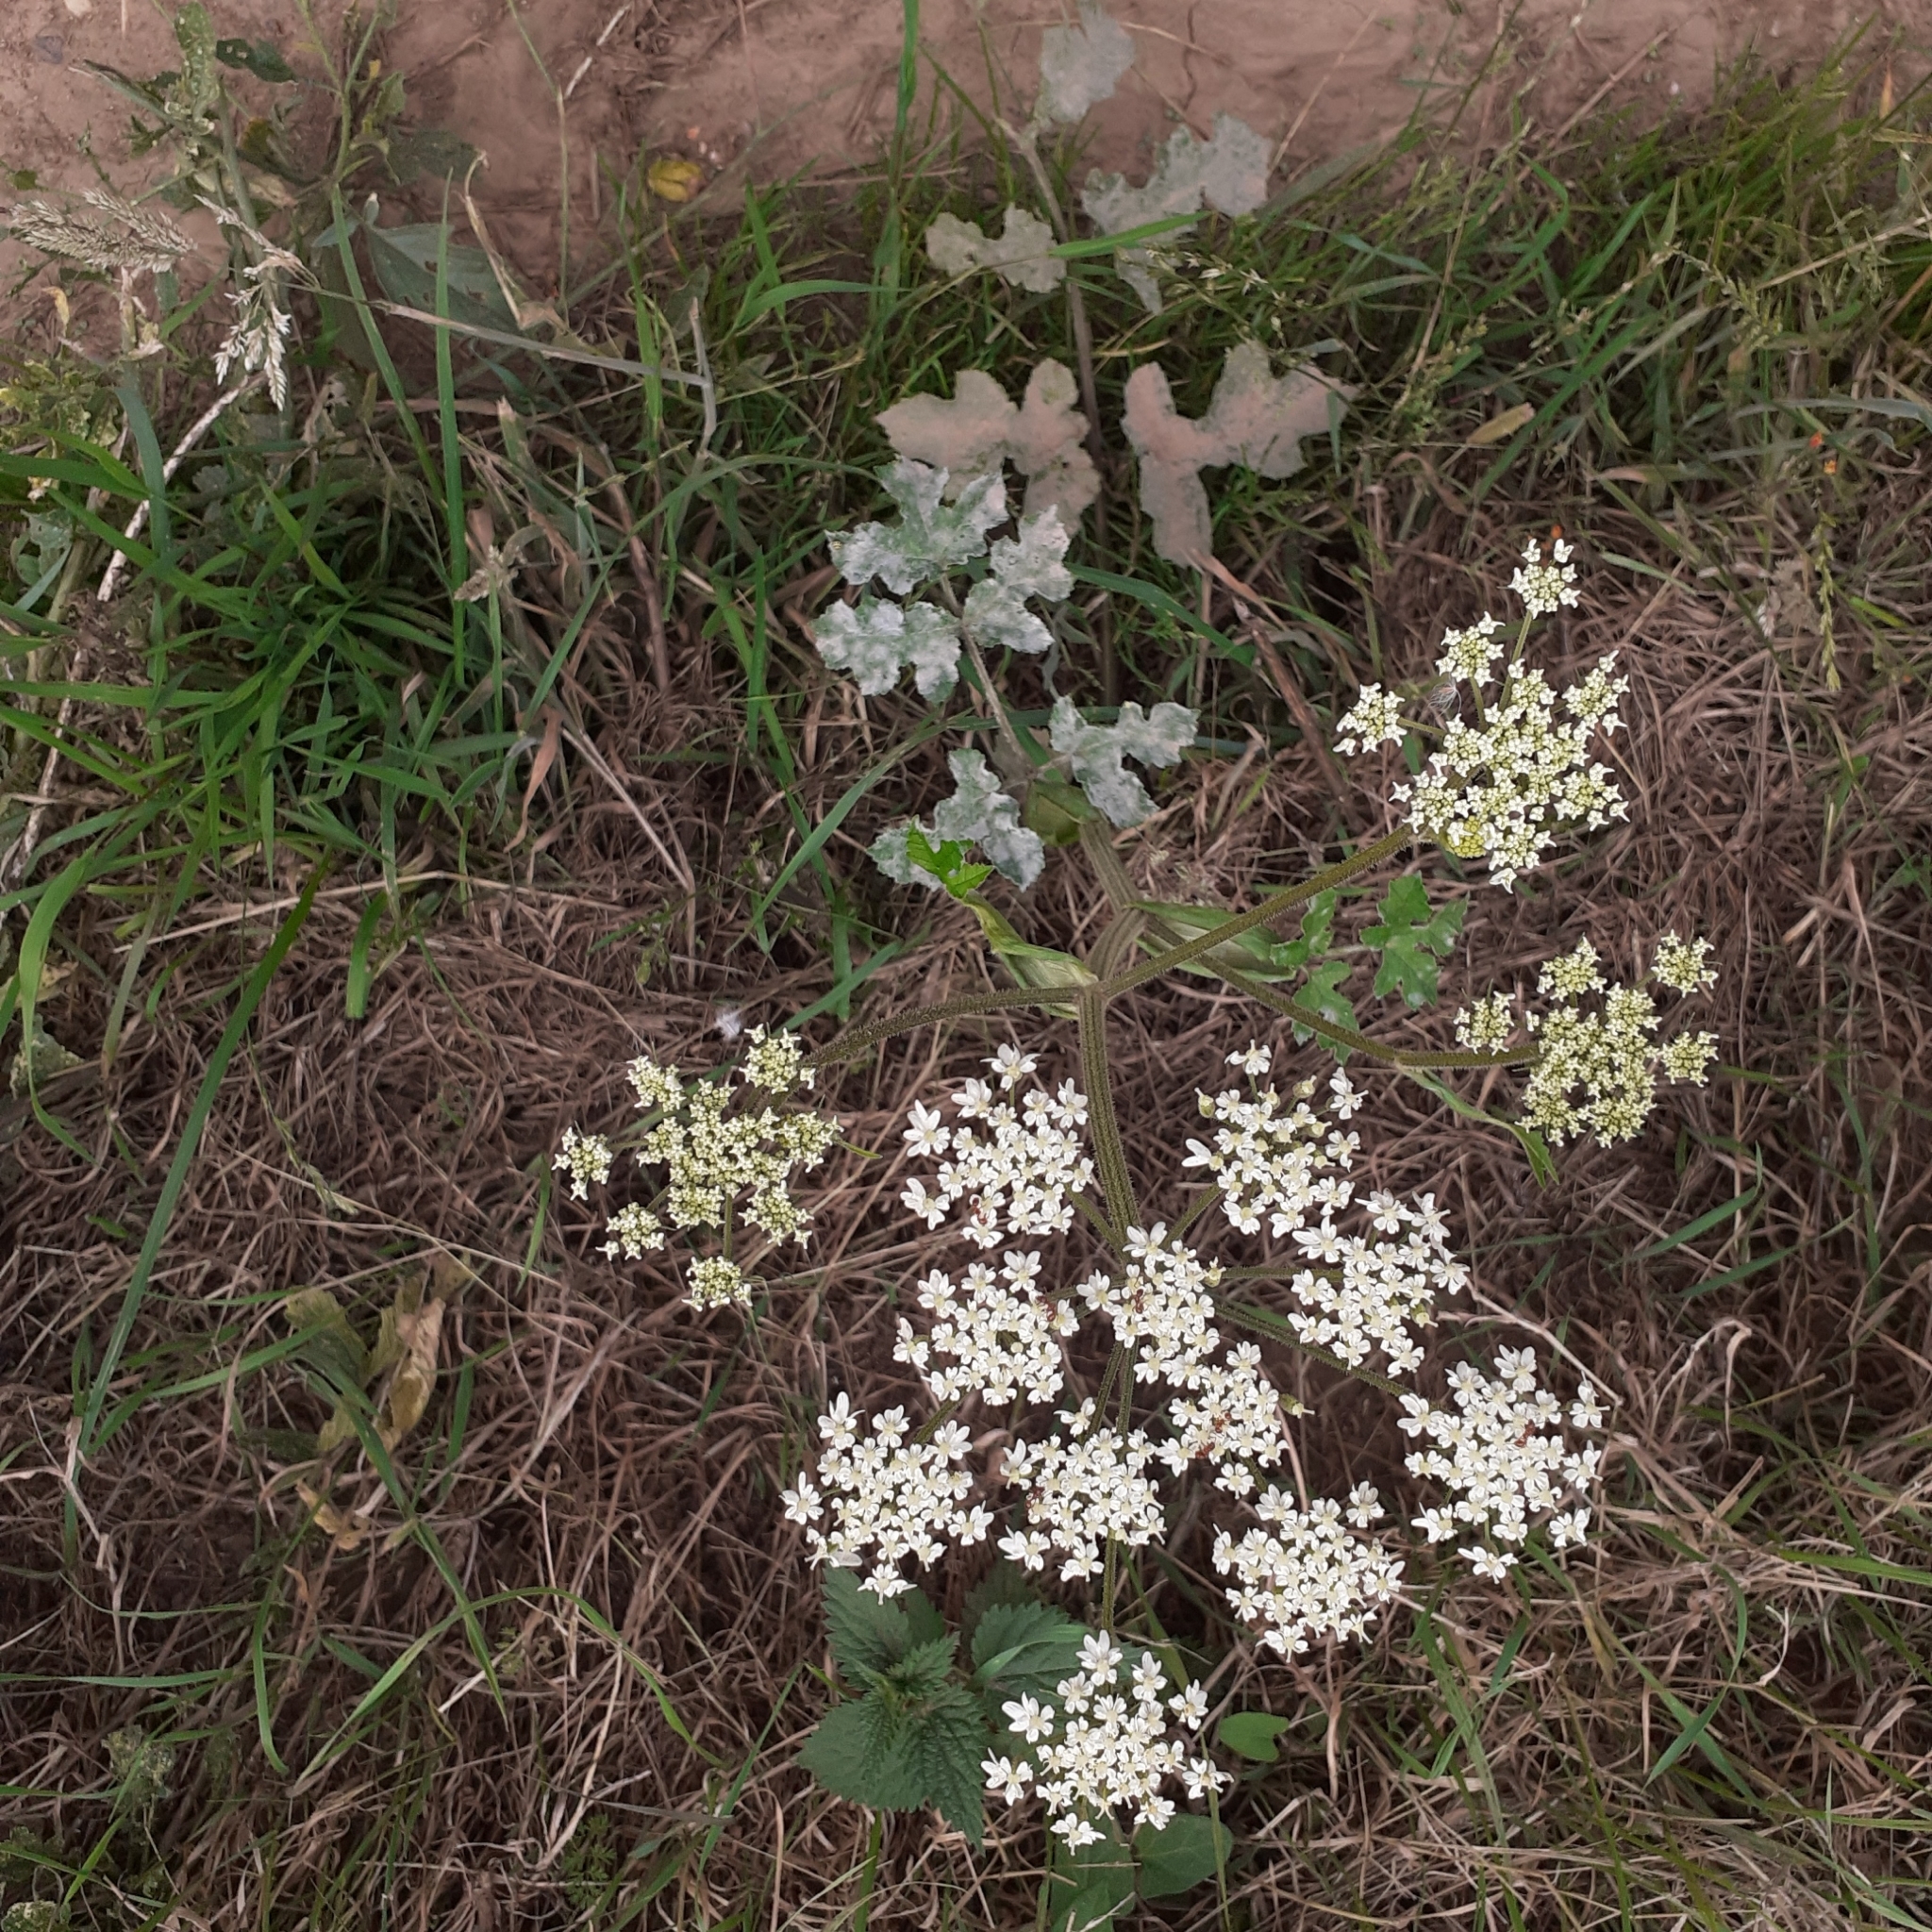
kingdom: Plantae
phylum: Tracheophyta
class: Magnoliopsida
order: Apiales
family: Apiaceae
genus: Heracleum
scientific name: Heracleum sphondylium
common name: Hogweed
